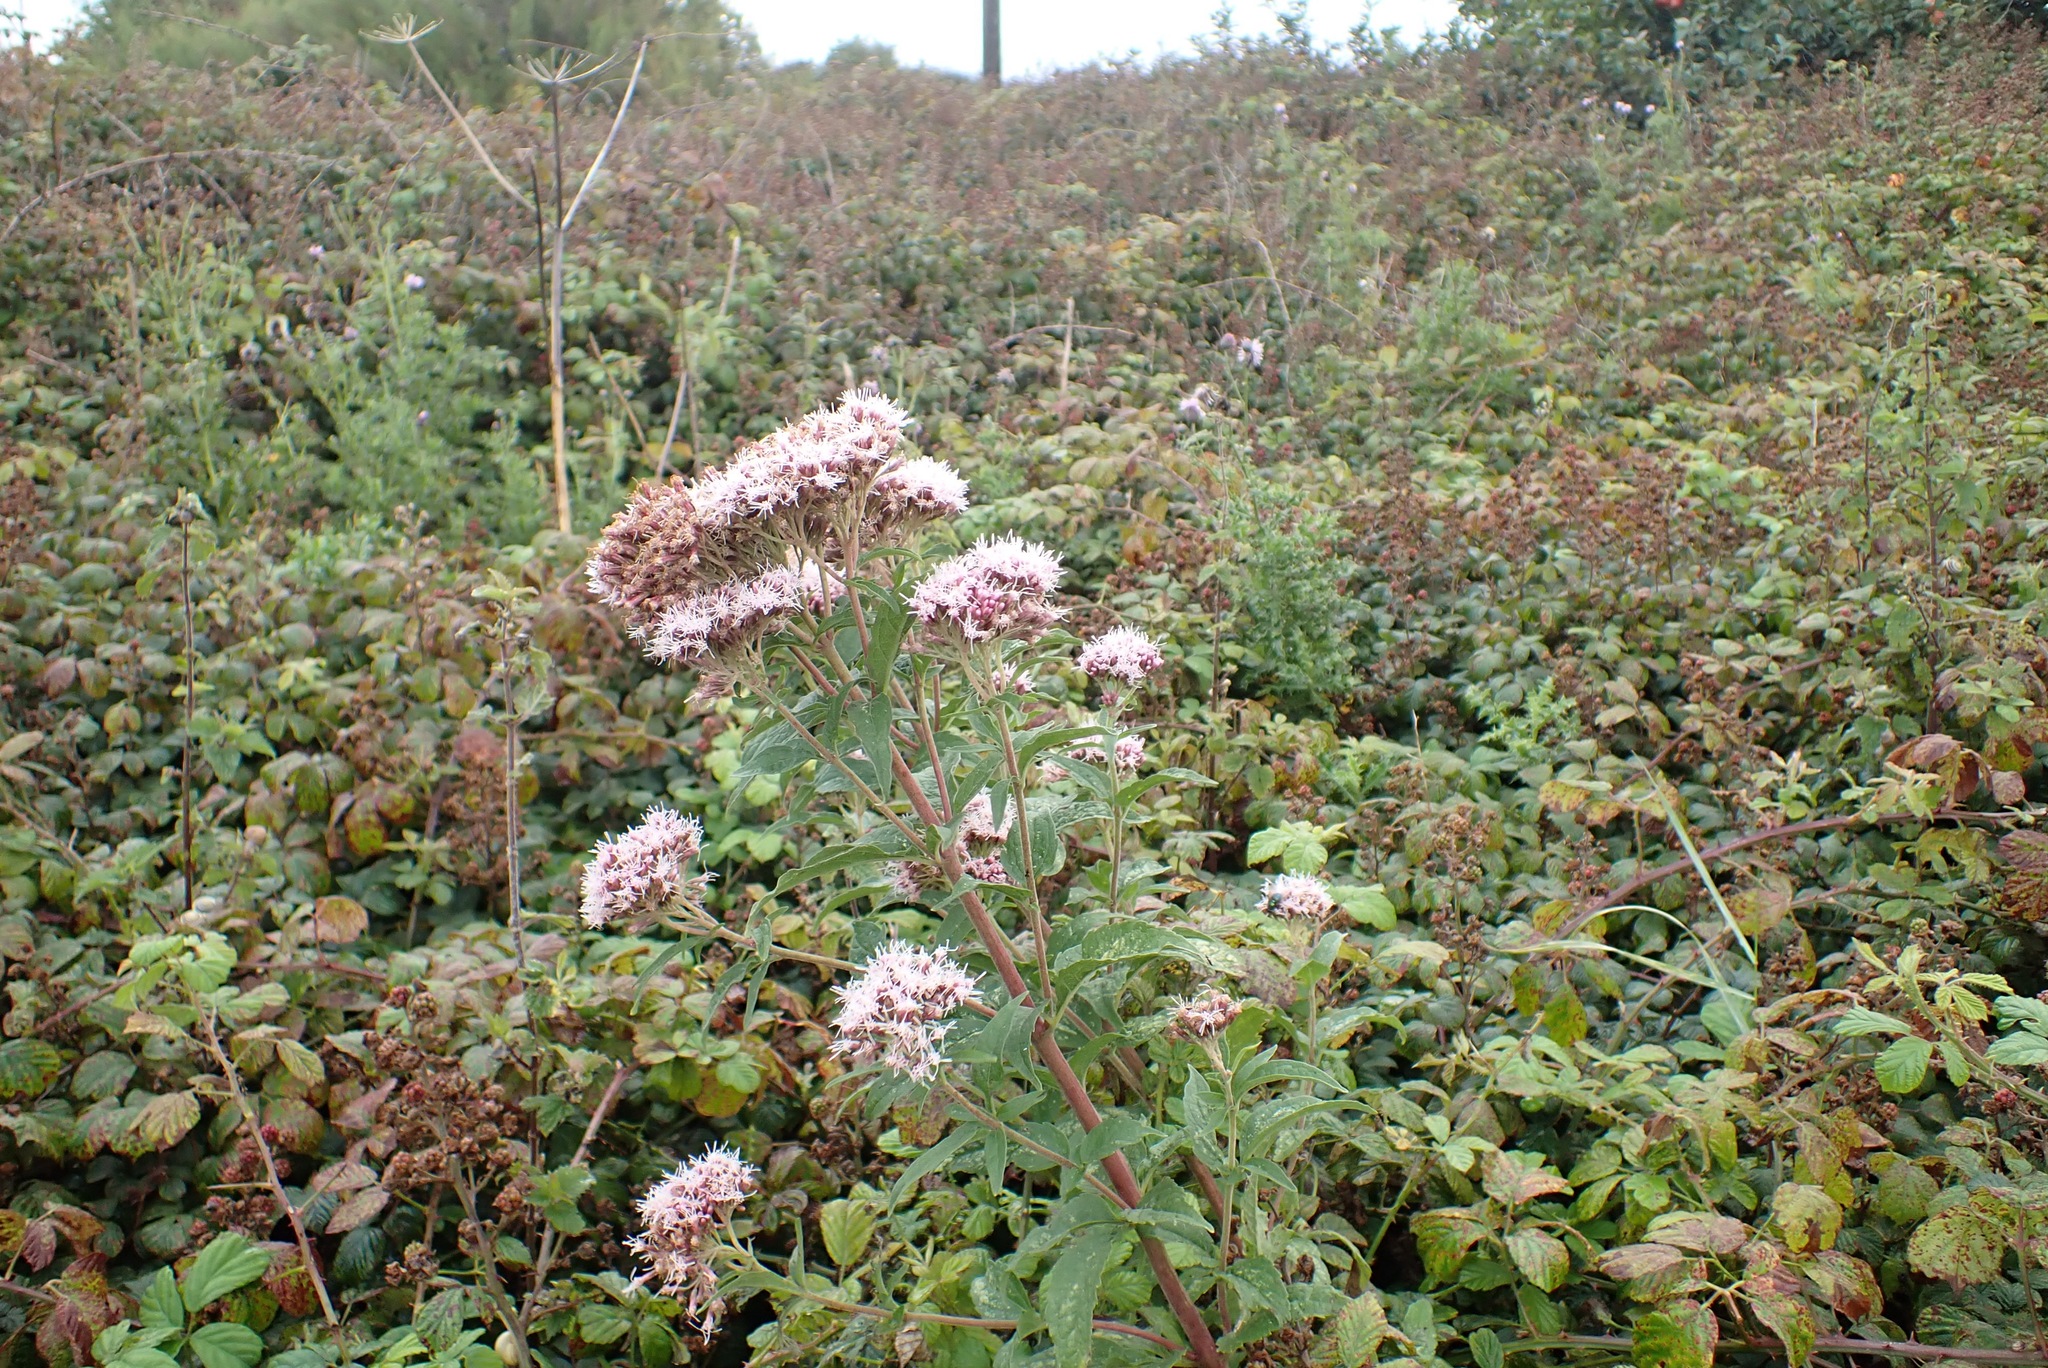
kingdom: Plantae
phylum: Tracheophyta
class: Magnoliopsida
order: Asterales
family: Asteraceae
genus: Eupatorium
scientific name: Eupatorium cannabinum
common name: Hemp-agrimony
